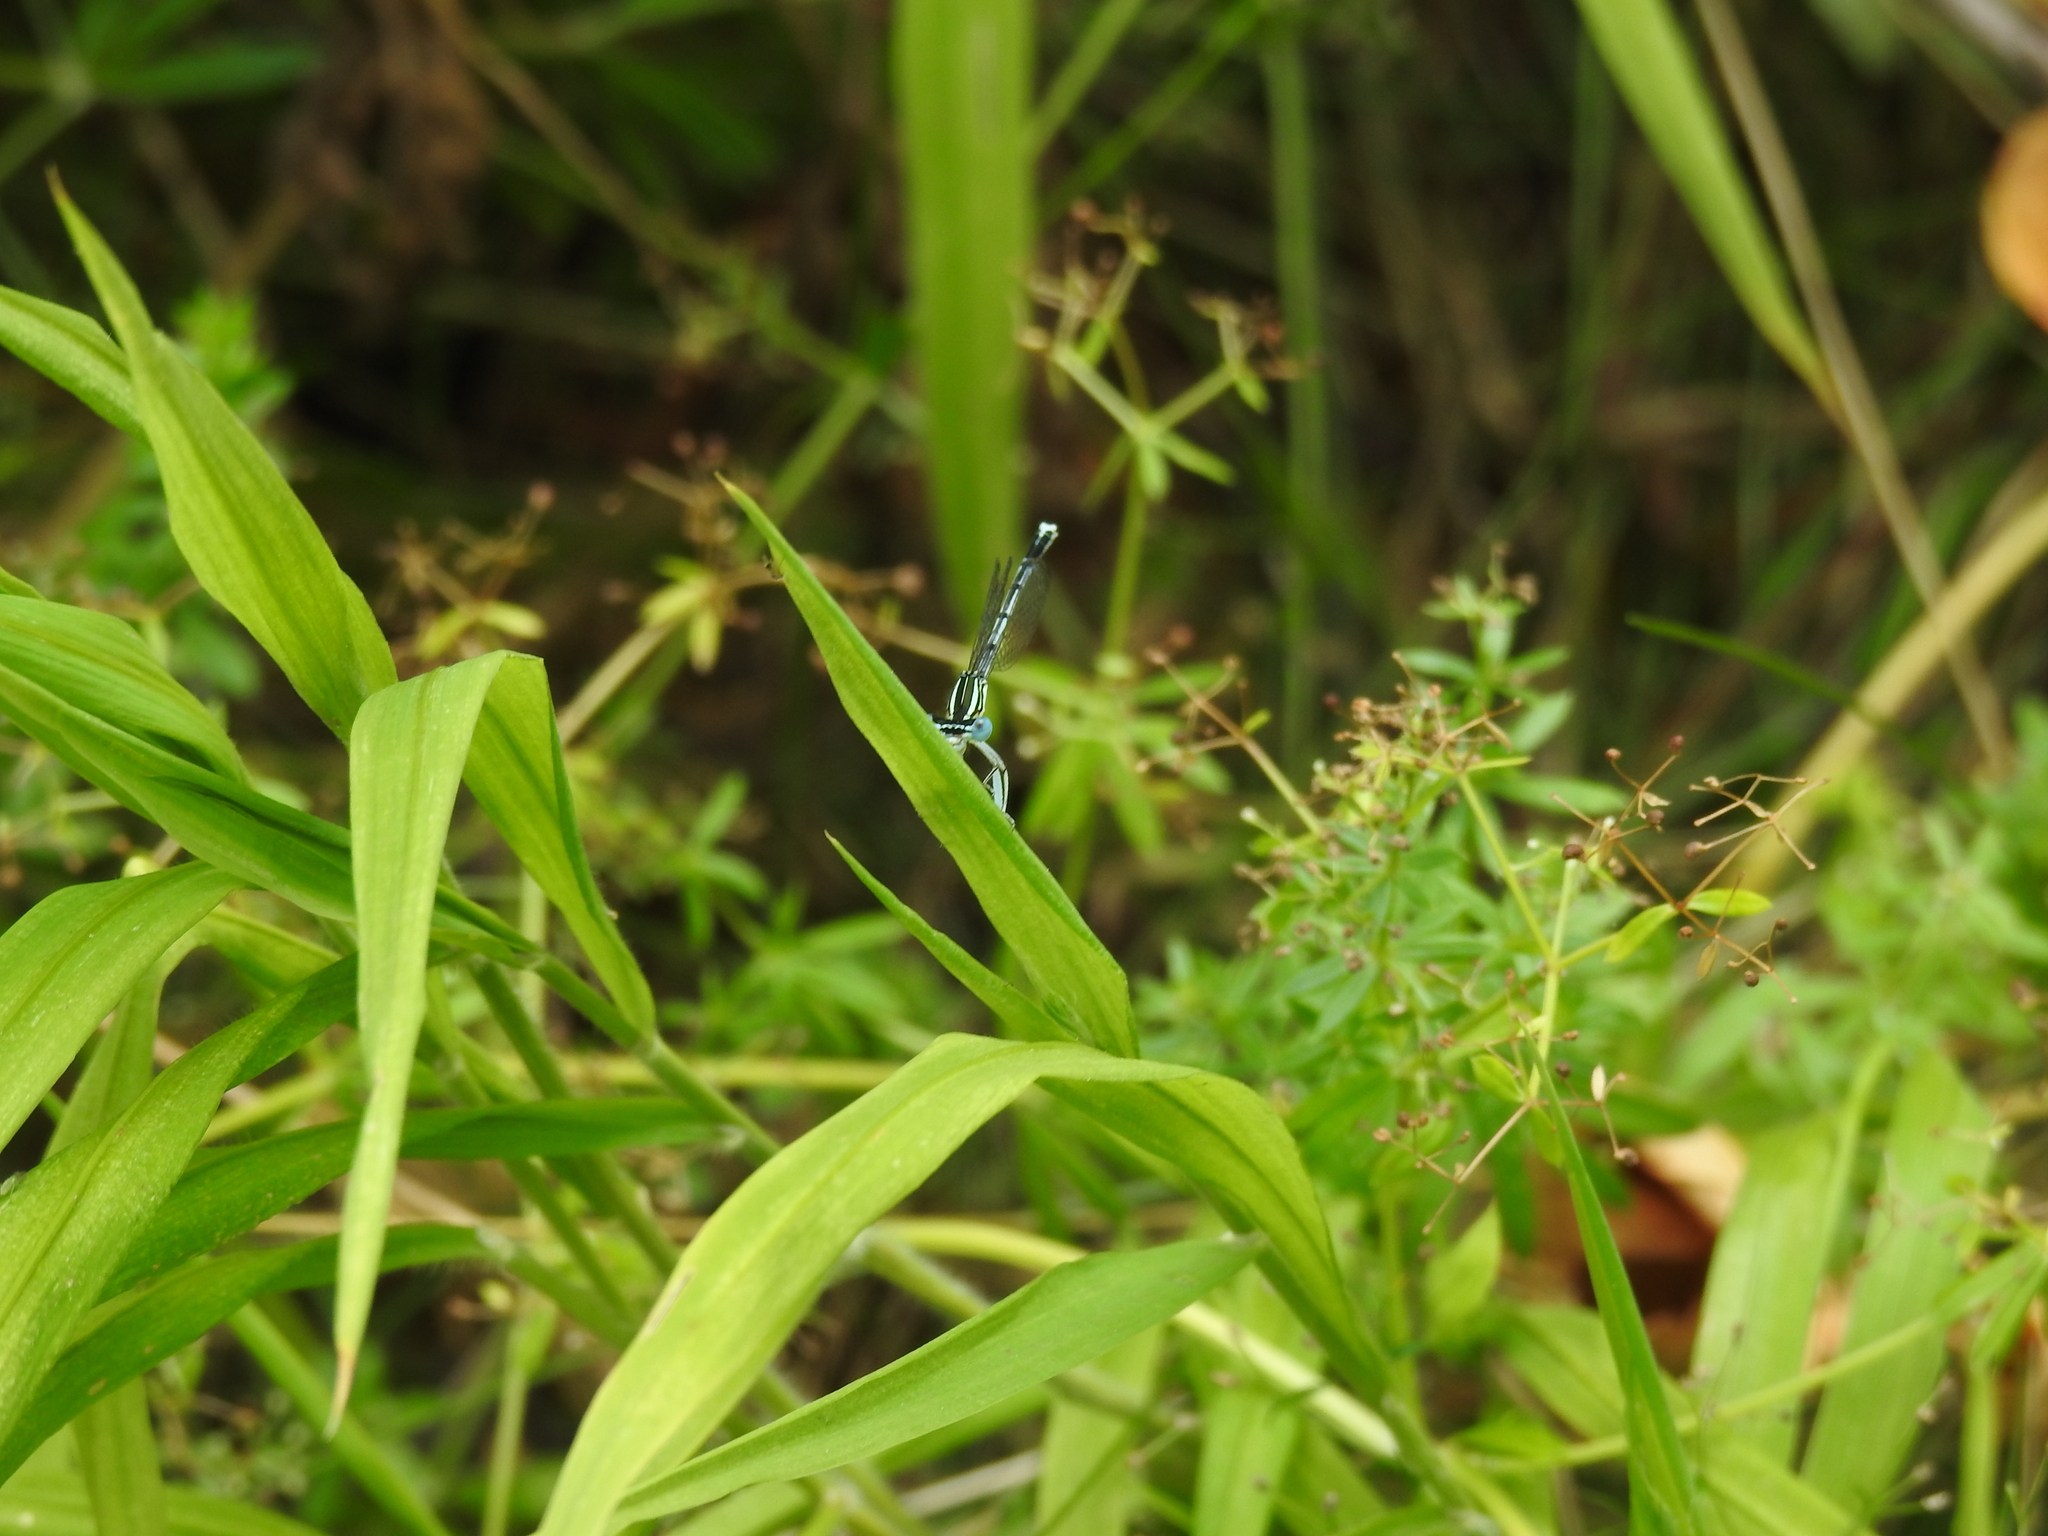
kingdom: Animalia
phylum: Arthropoda
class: Insecta
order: Odonata
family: Platycnemididae
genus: Platycnemis
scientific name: Platycnemis pennipes
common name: White-legged damselfly
